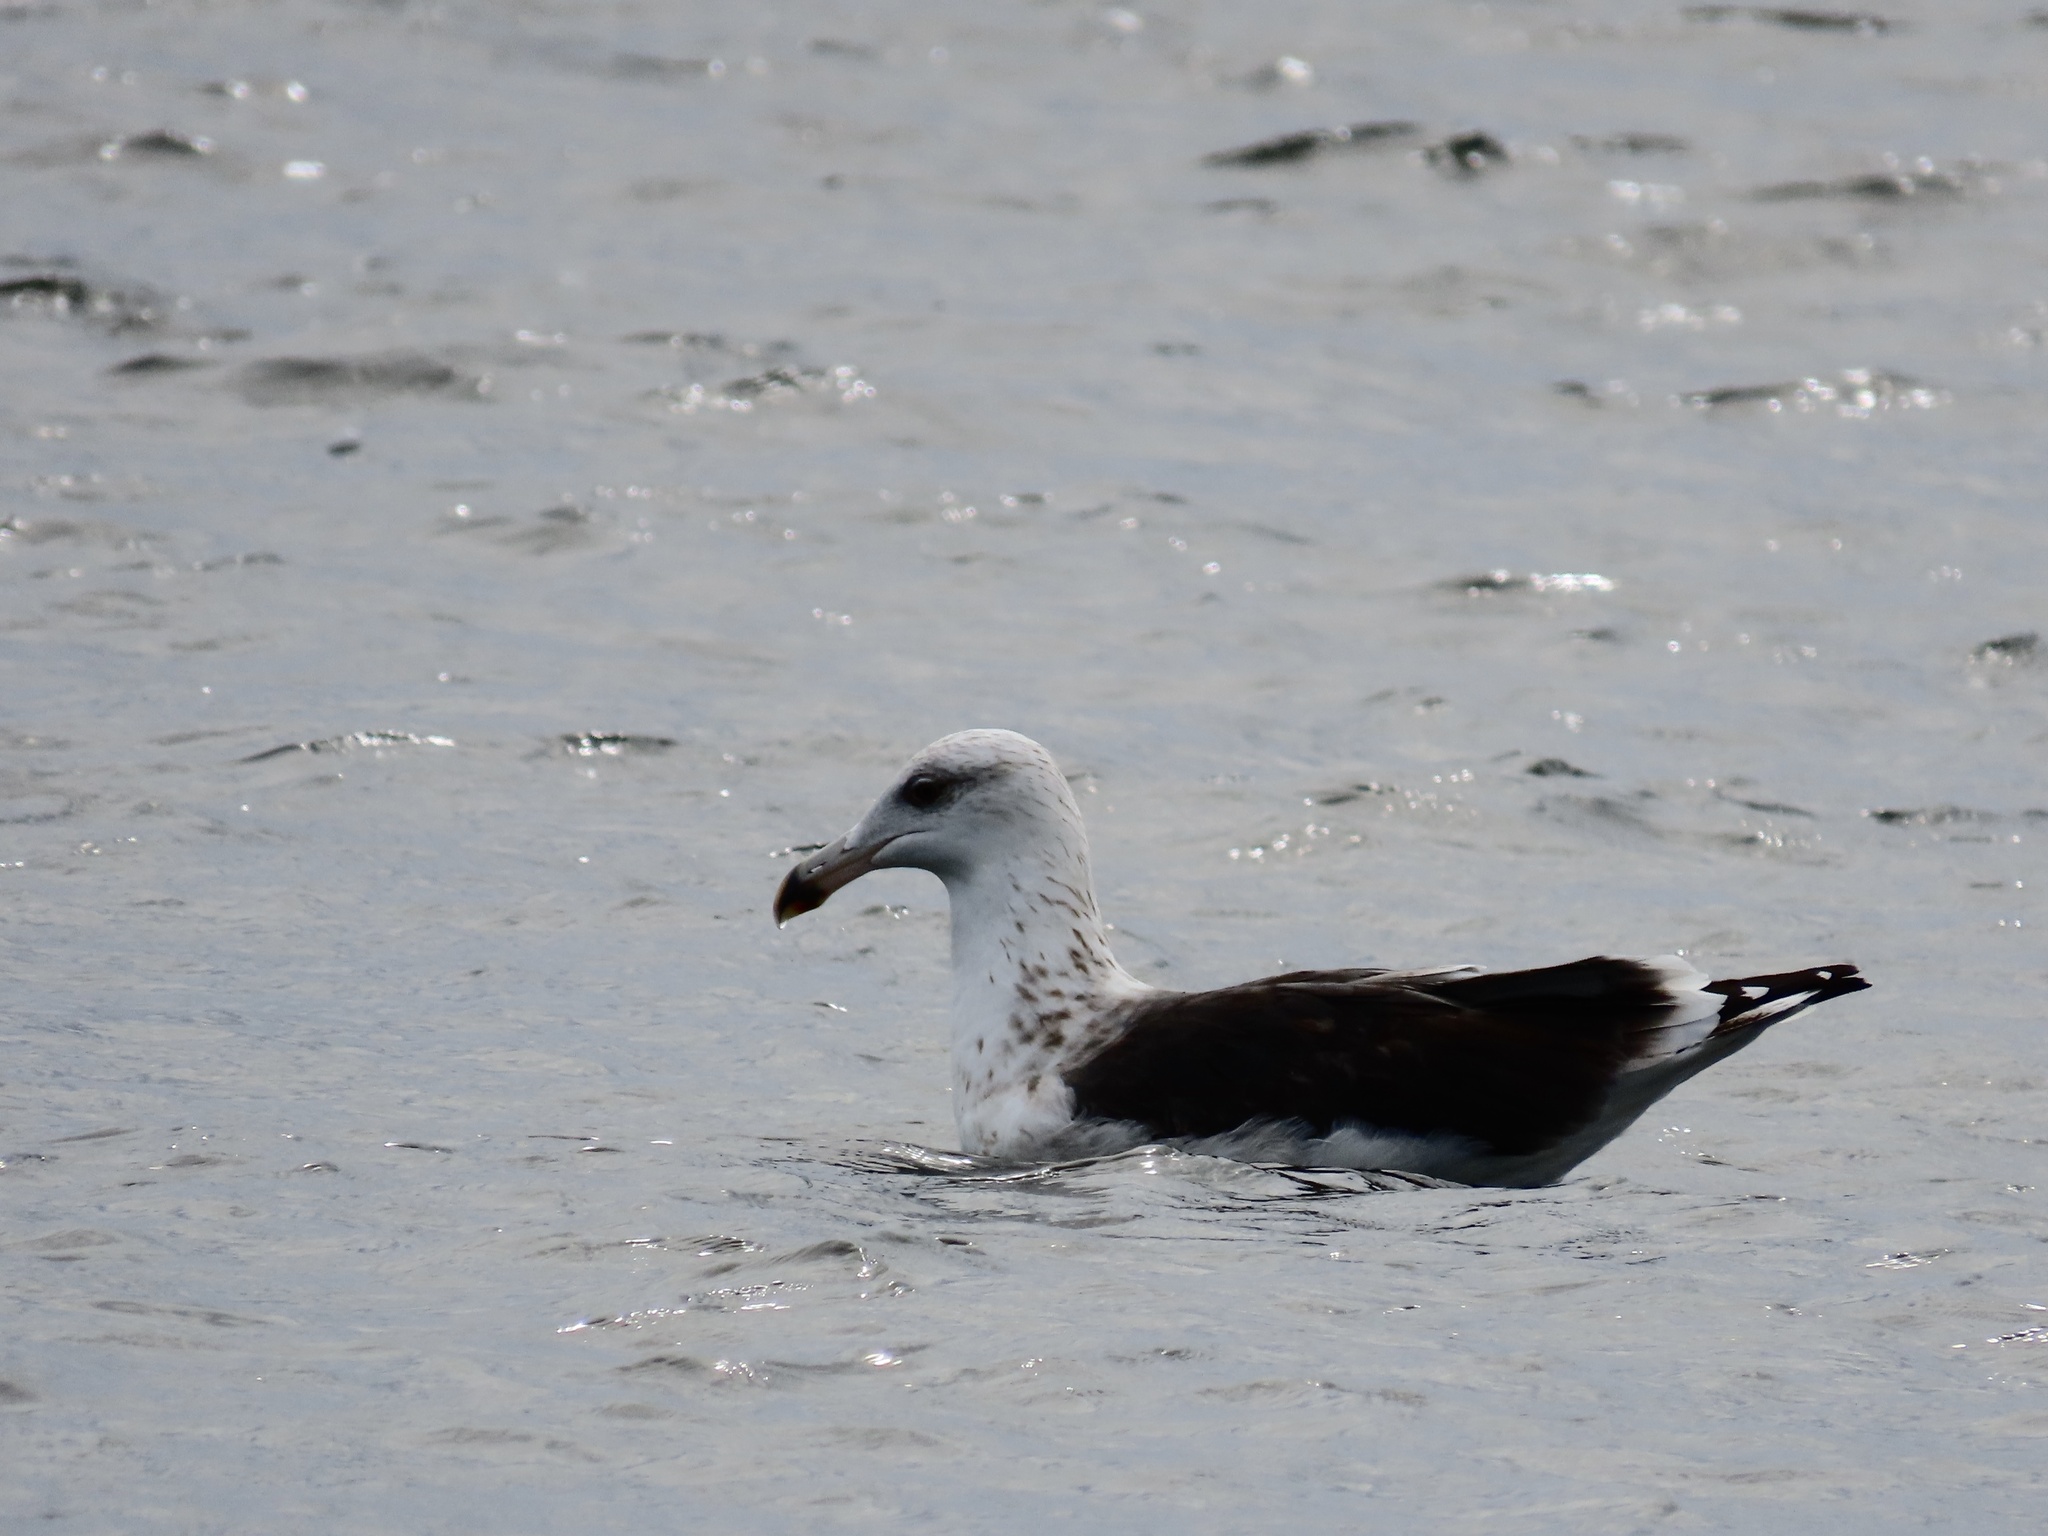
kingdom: Animalia
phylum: Chordata
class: Aves
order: Charadriiformes
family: Laridae
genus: Larus
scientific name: Larus marinus
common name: Great black-backed gull
